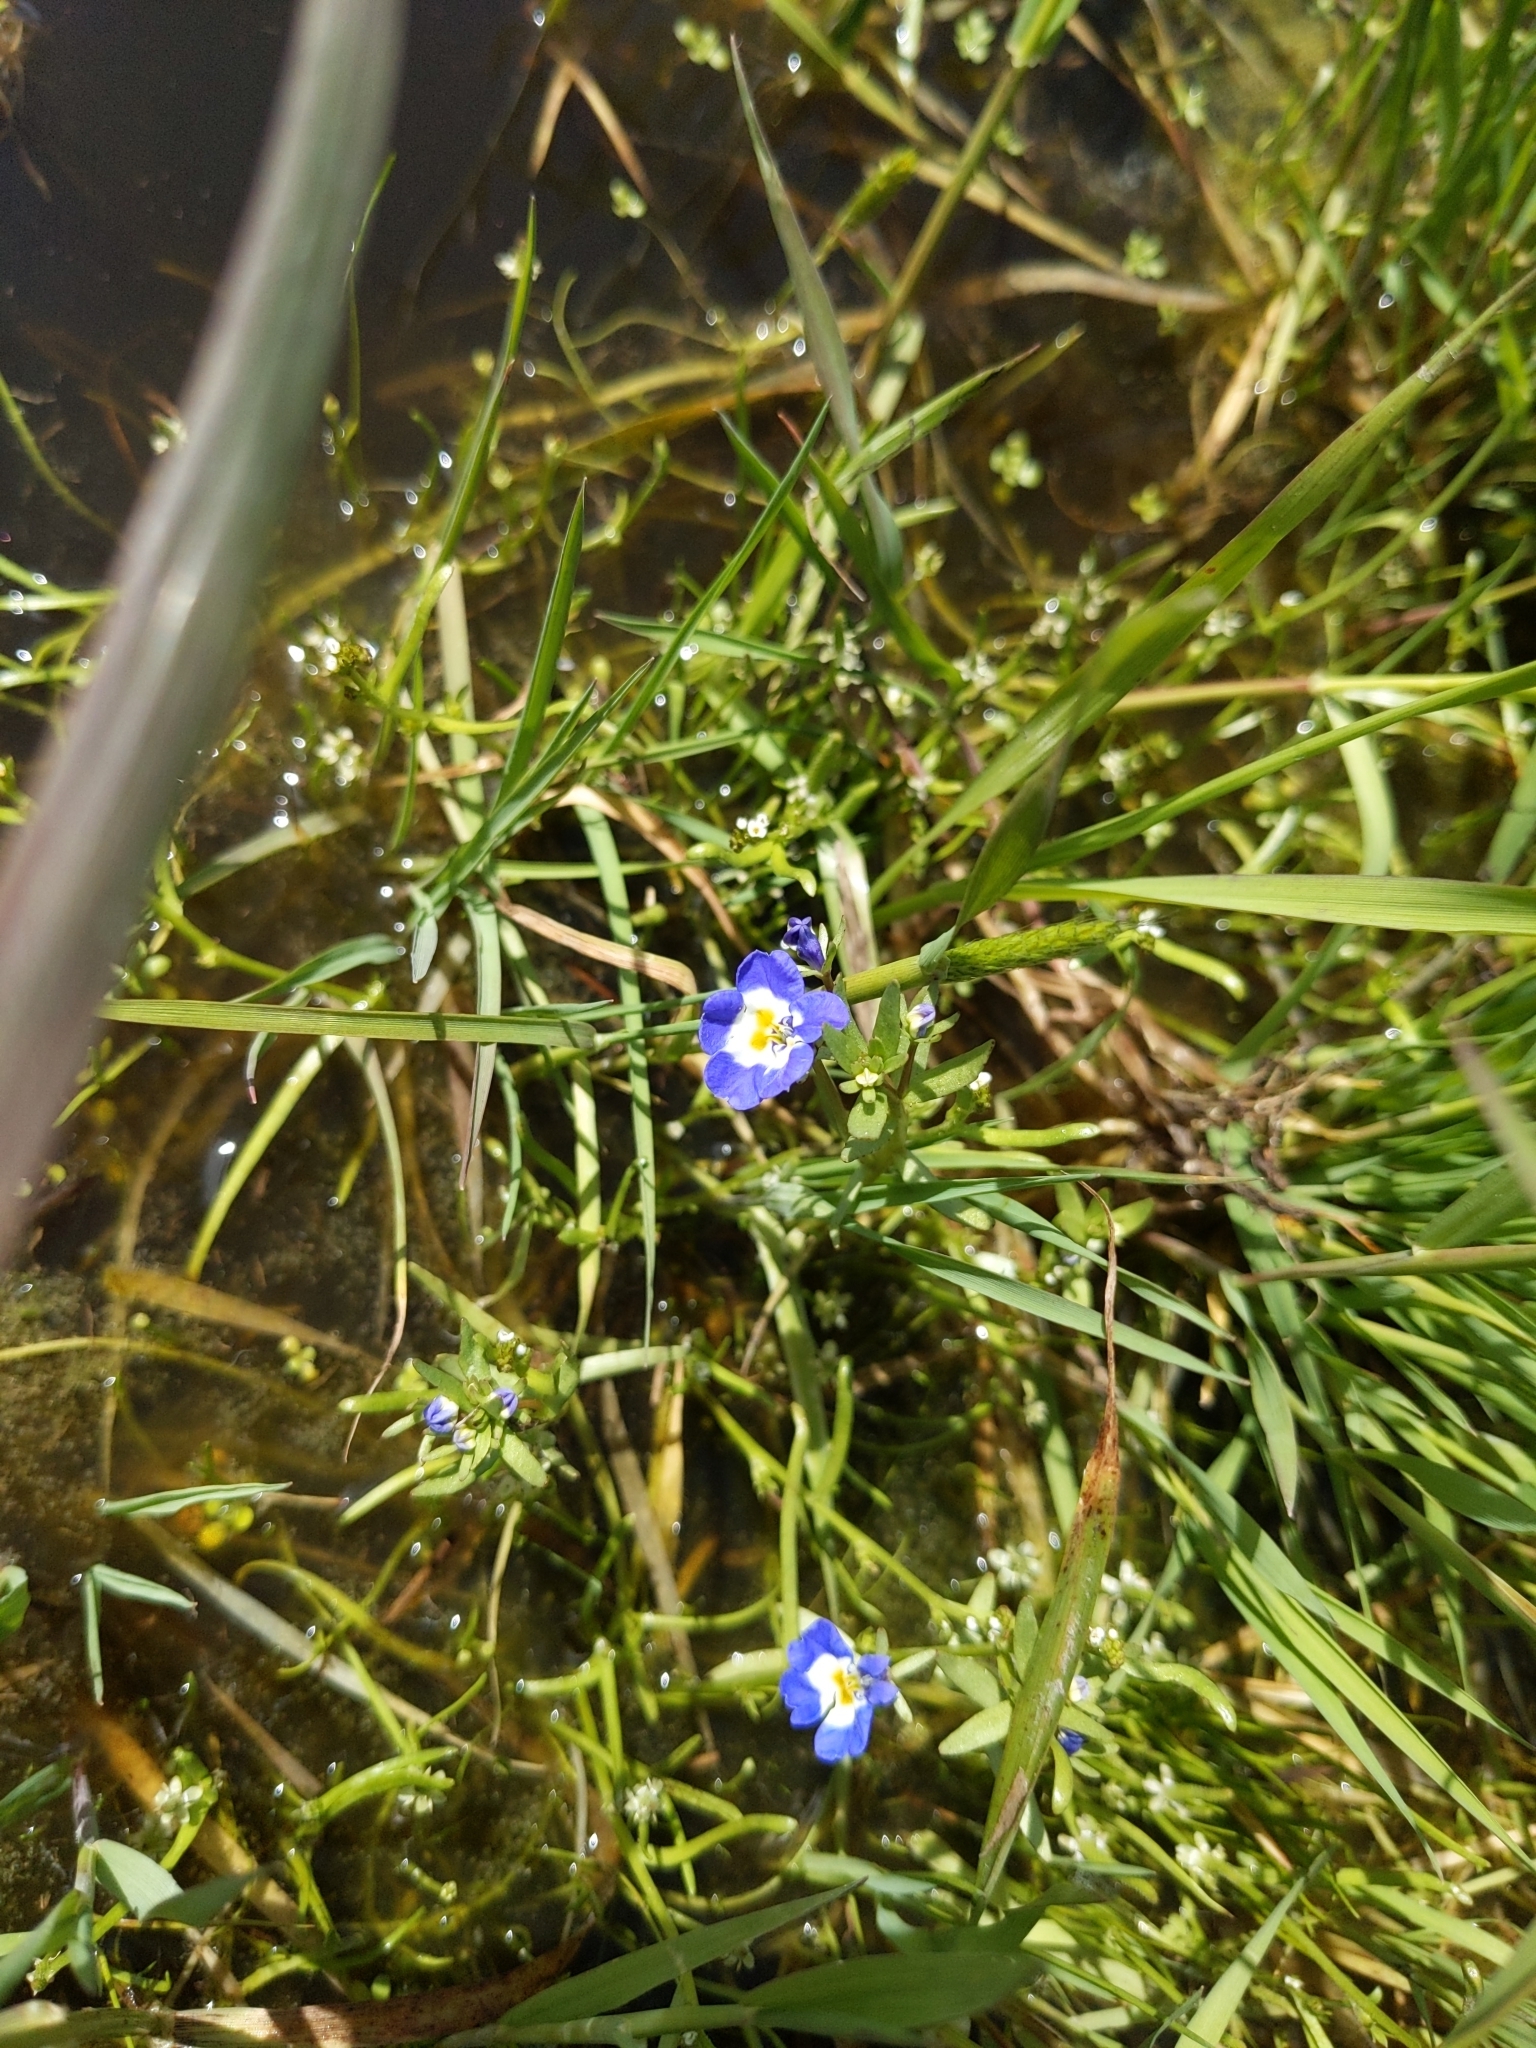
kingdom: Plantae
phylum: Tracheophyta
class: Magnoliopsida
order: Asterales
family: Campanulaceae
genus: Downingia
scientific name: Downingia bella
